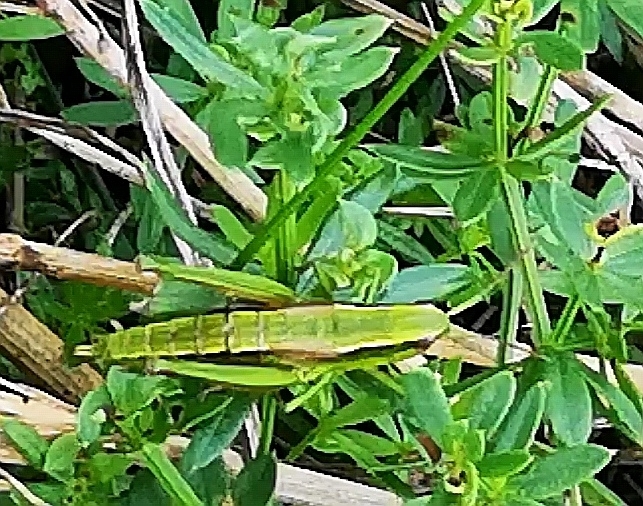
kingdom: Animalia
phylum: Arthropoda
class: Insecta
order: Orthoptera
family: Acrididae
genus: Euthystira
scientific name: Euthystira brachyptera
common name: Small gold grasshopper
